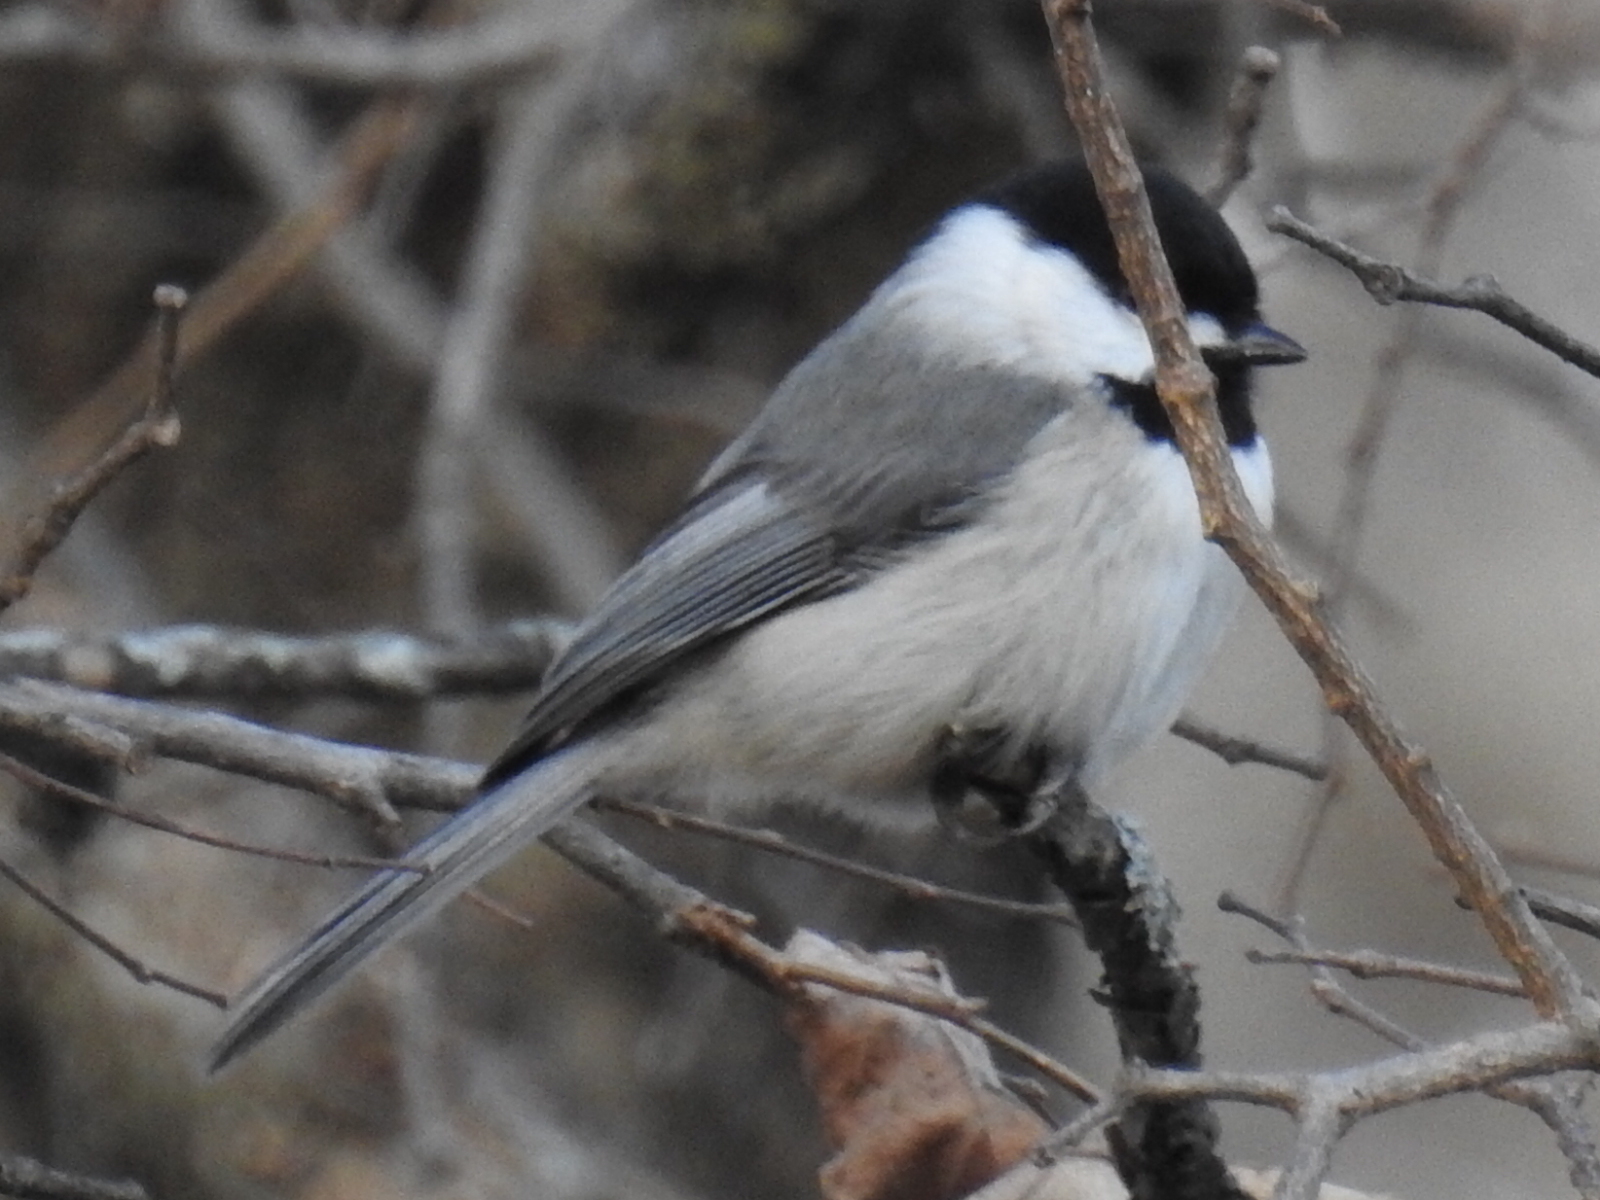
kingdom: Animalia
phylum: Chordata
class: Aves
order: Passeriformes
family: Paridae
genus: Poecile
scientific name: Poecile carolinensis
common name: Carolina chickadee
